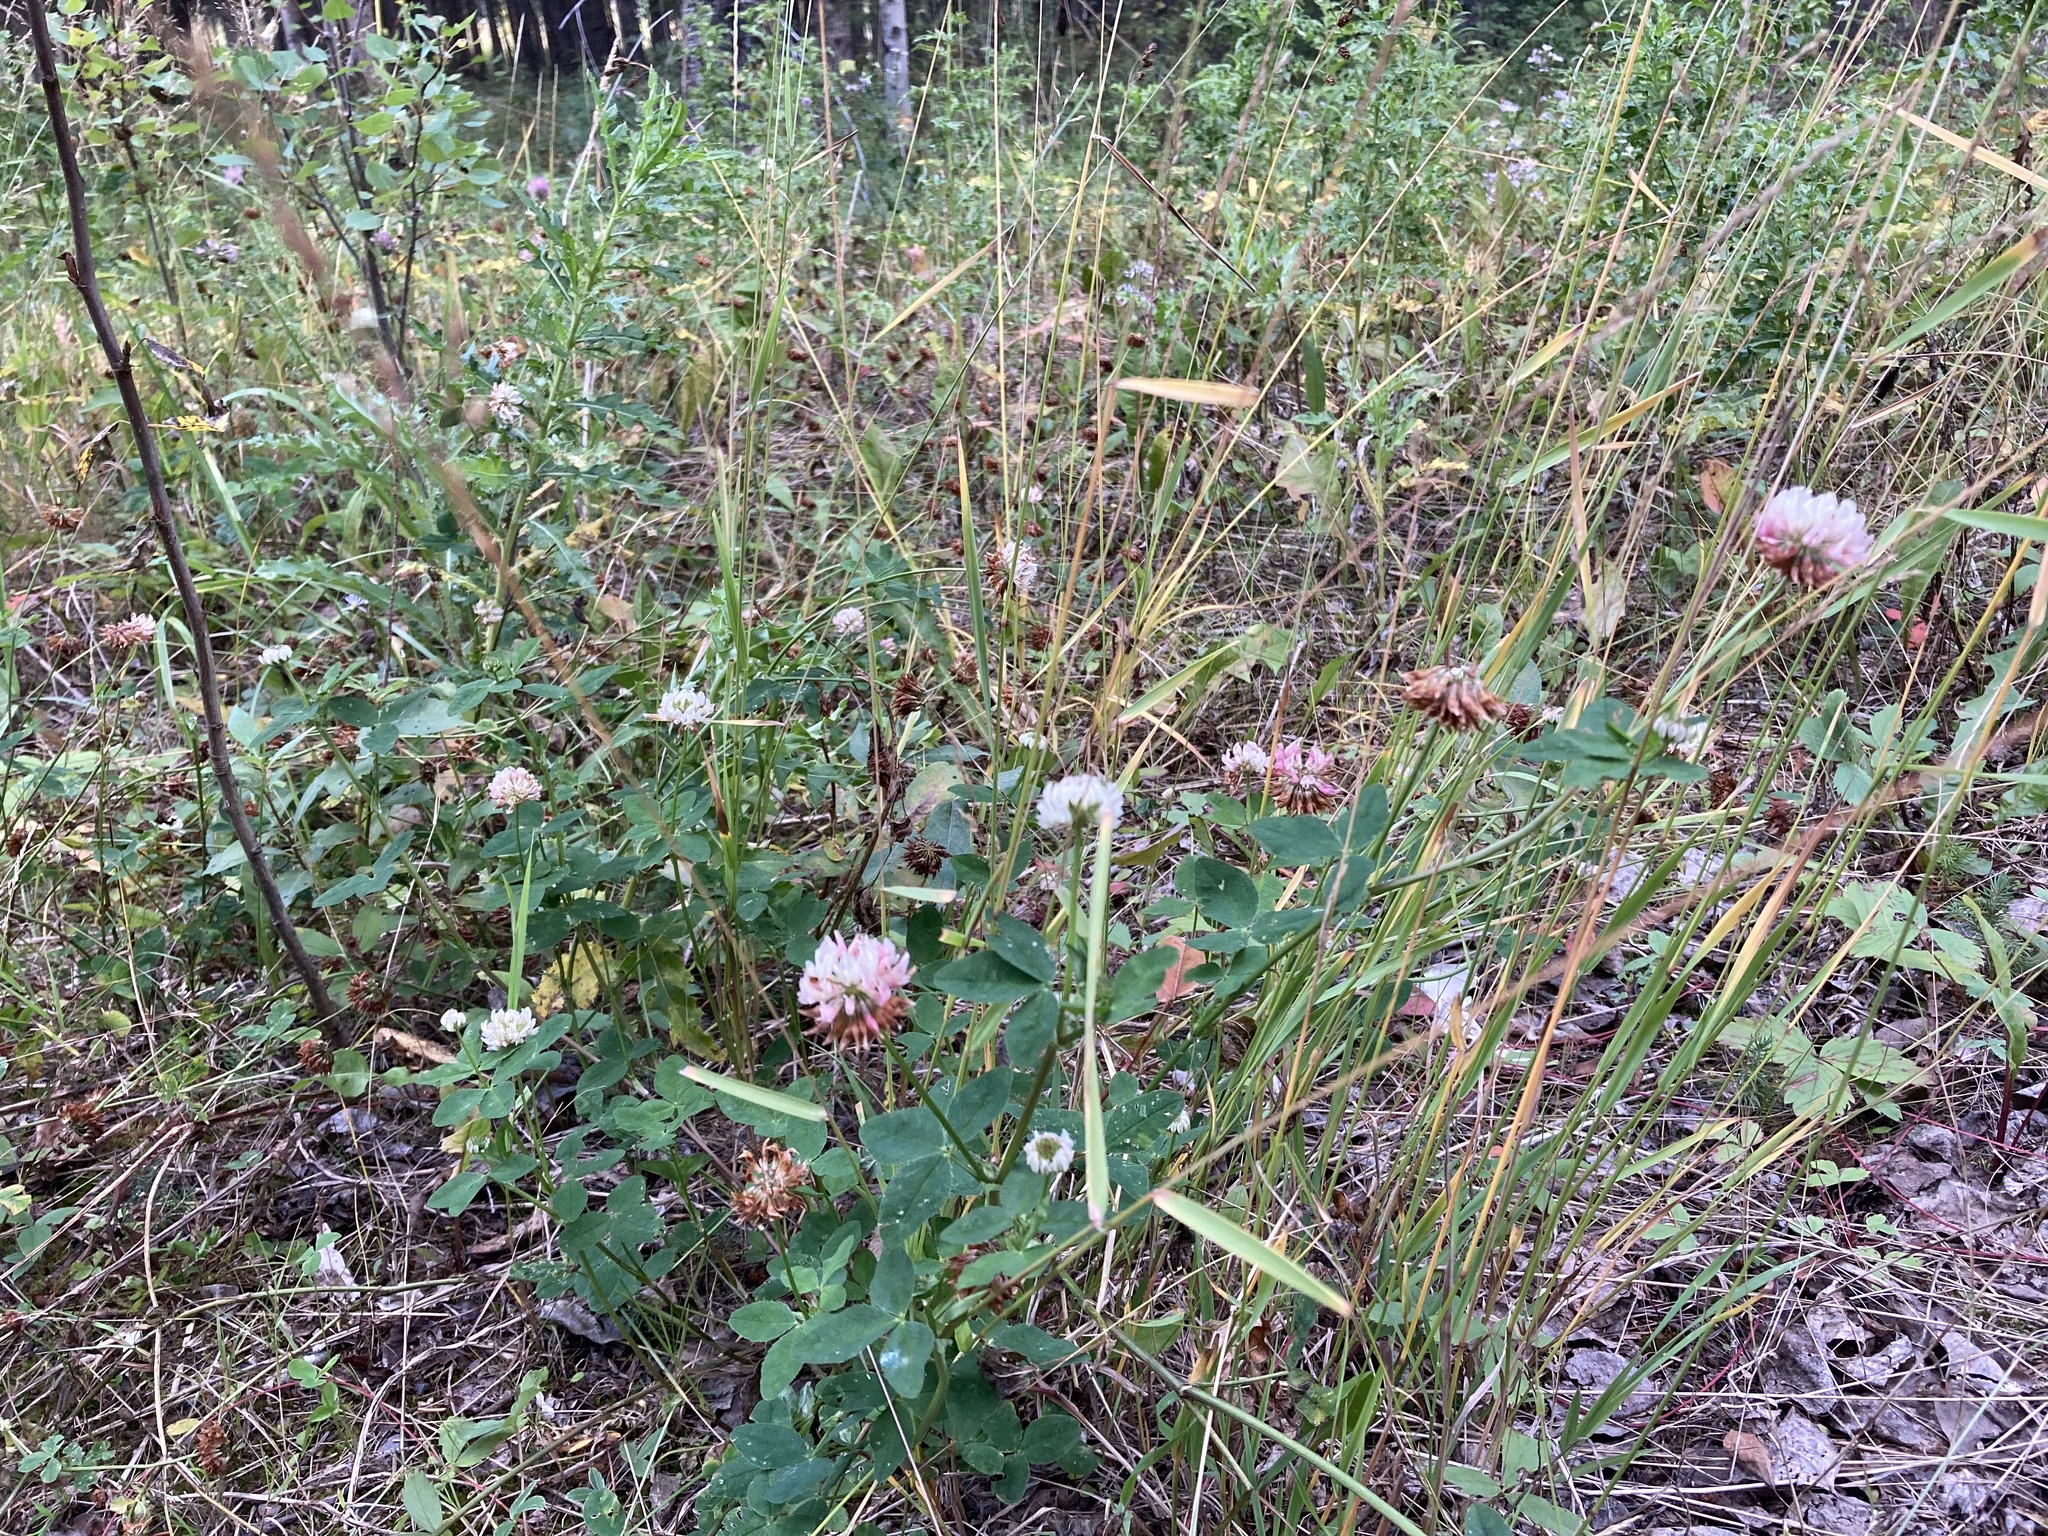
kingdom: Plantae
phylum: Tracheophyta
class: Magnoliopsida
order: Fabales
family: Fabaceae
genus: Trifolium
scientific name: Trifolium hybridum
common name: Alsike clover
